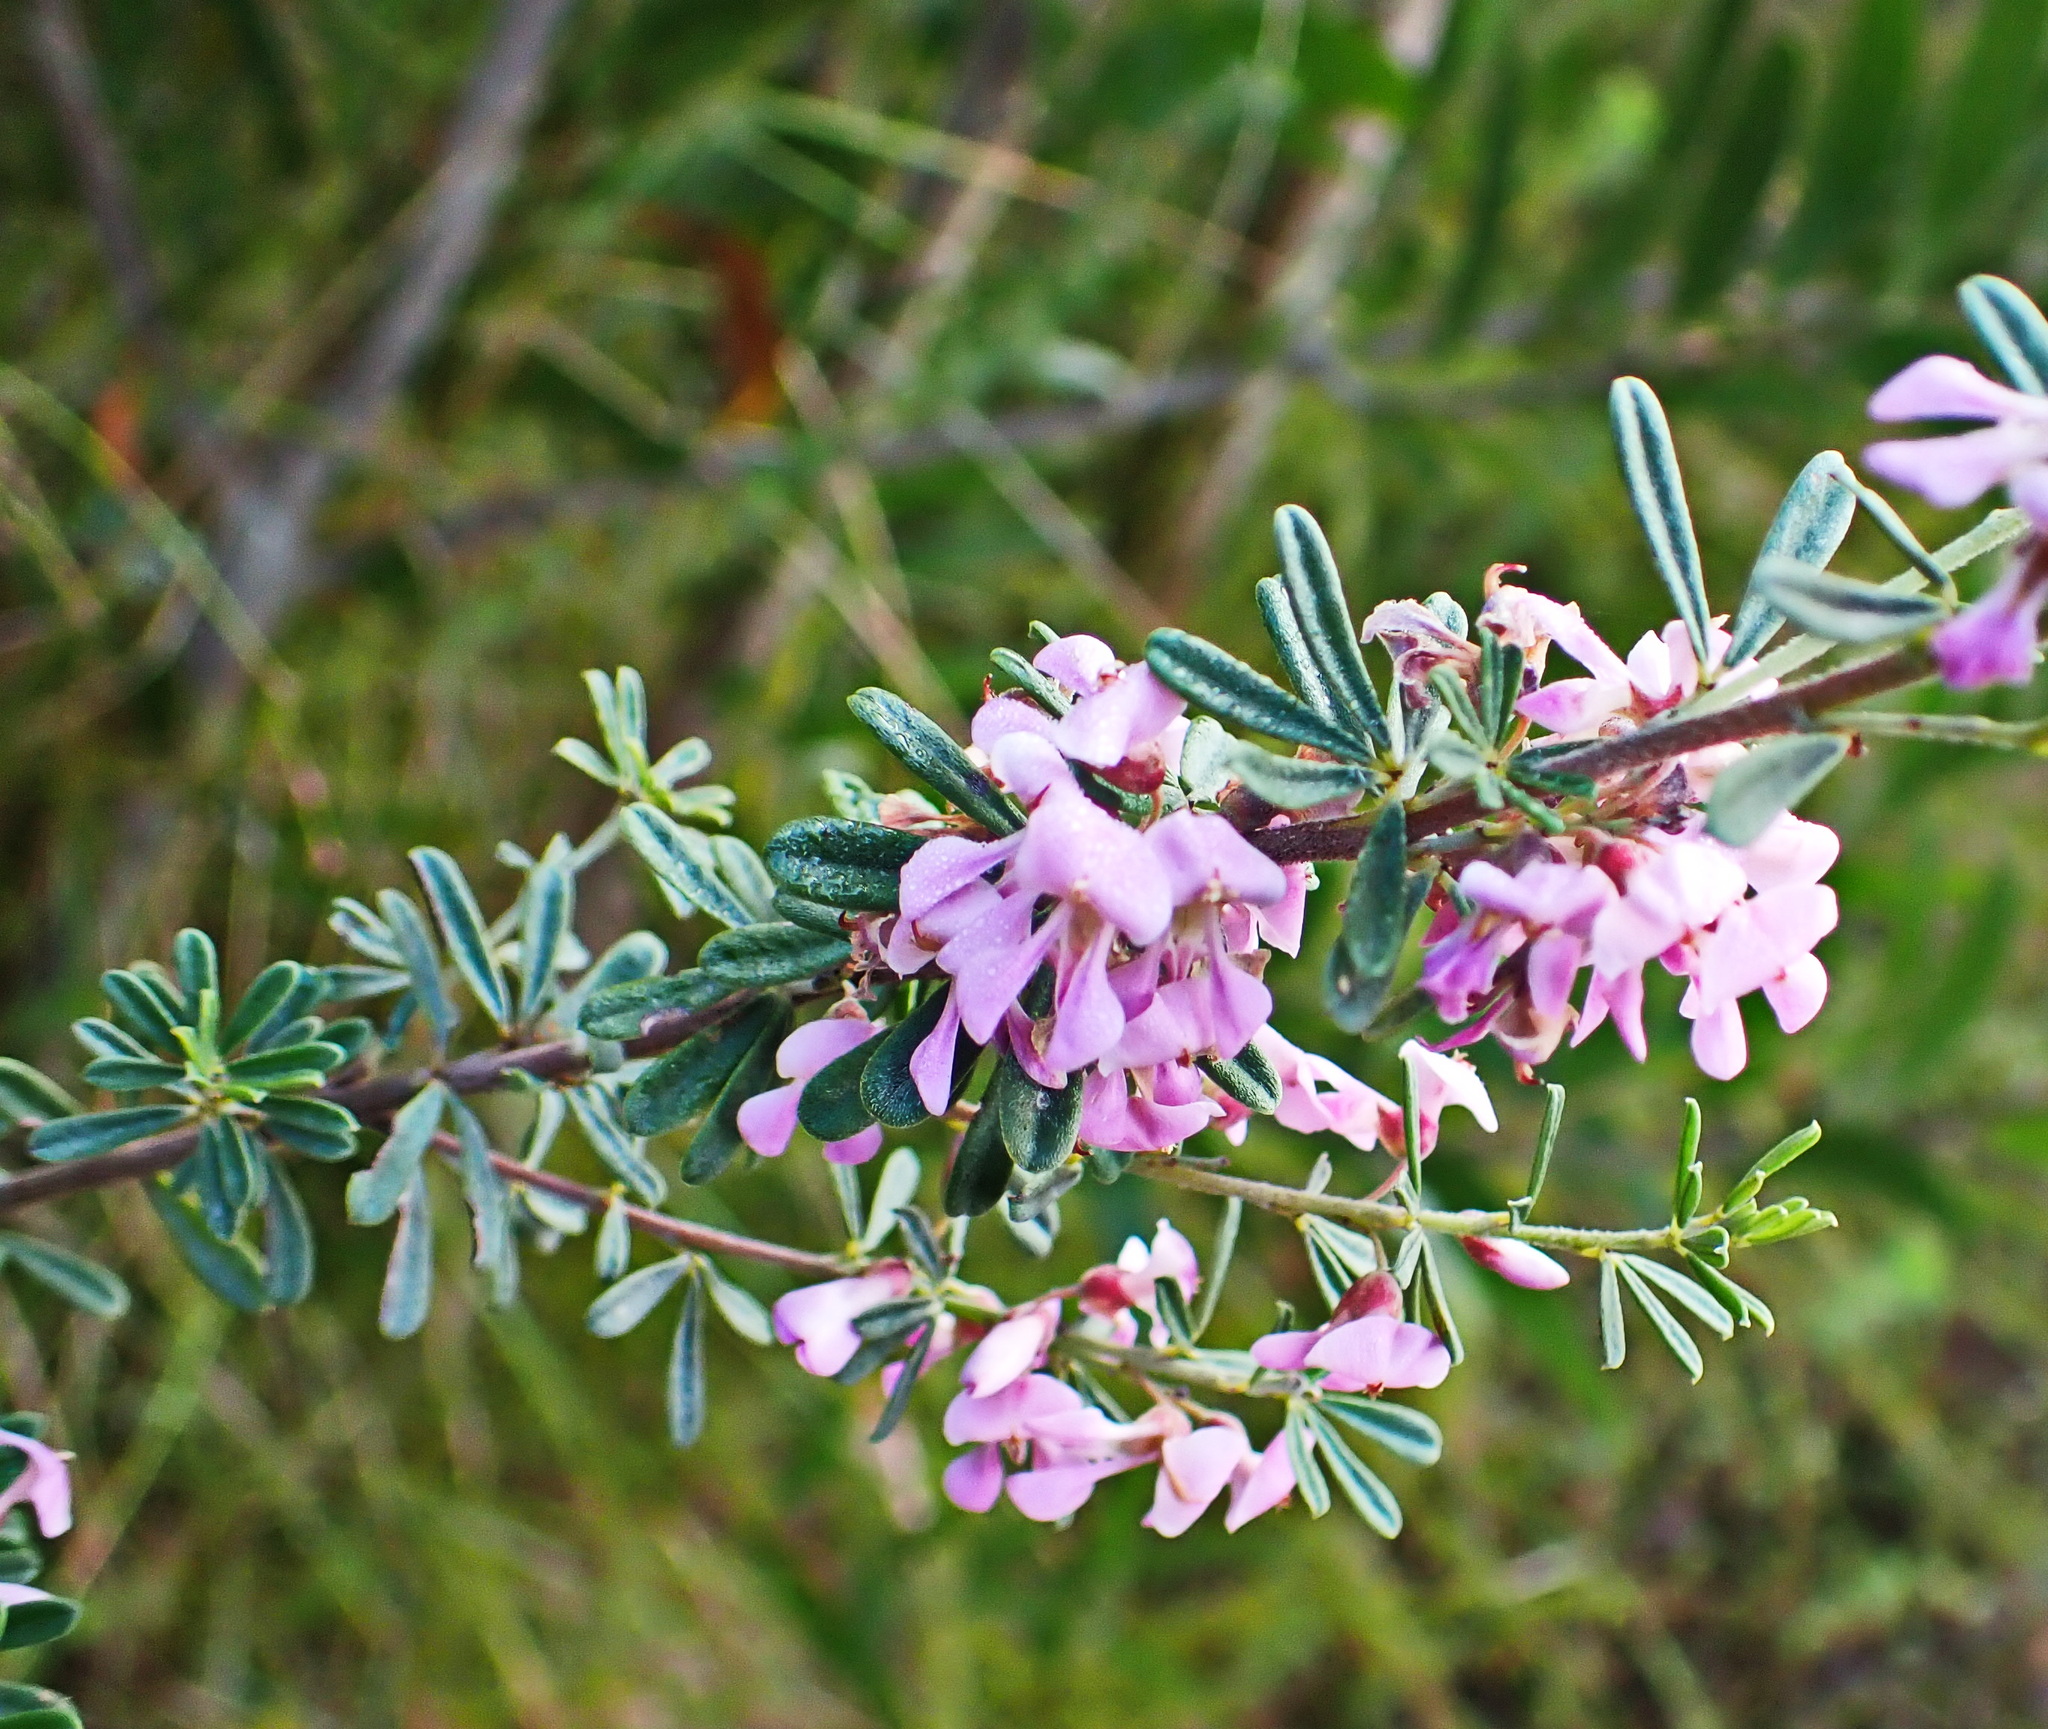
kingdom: Plantae
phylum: Tracheophyta
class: Magnoliopsida
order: Fabales
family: Fabaceae
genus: Indigofera
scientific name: Indigofera flabellata
